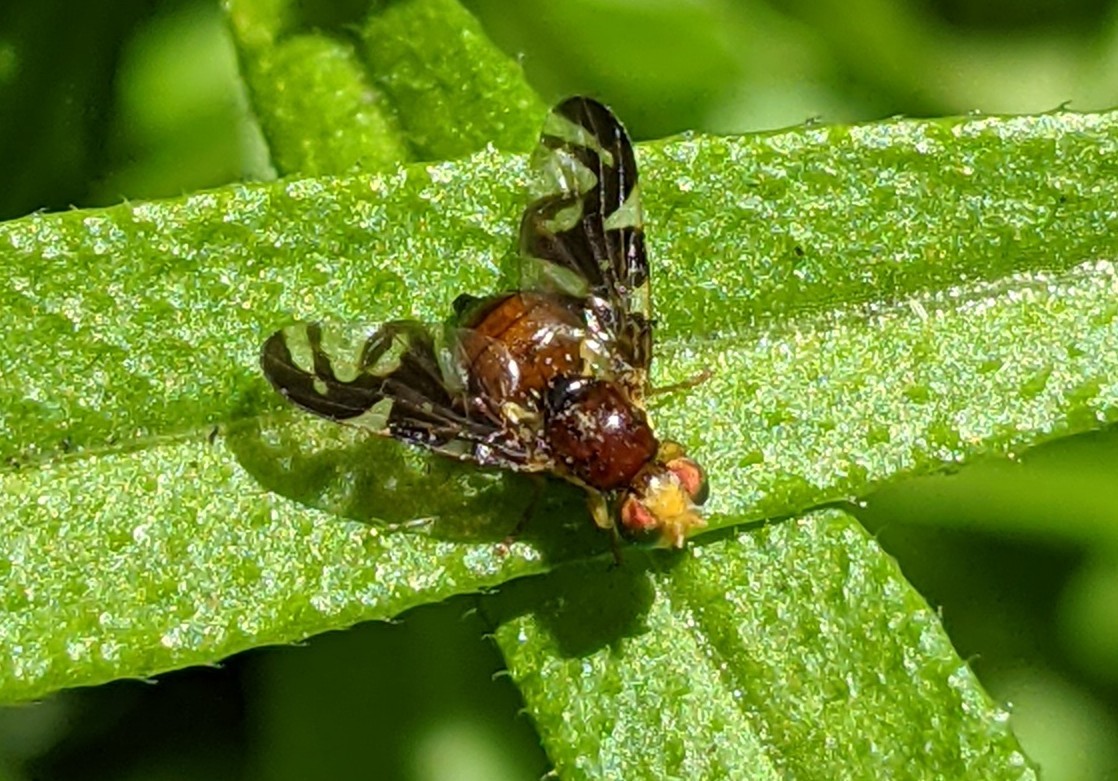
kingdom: Animalia
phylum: Arthropoda
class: Insecta
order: Diptera
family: Tephritidae
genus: Euleia
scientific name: Euleia heraclei
